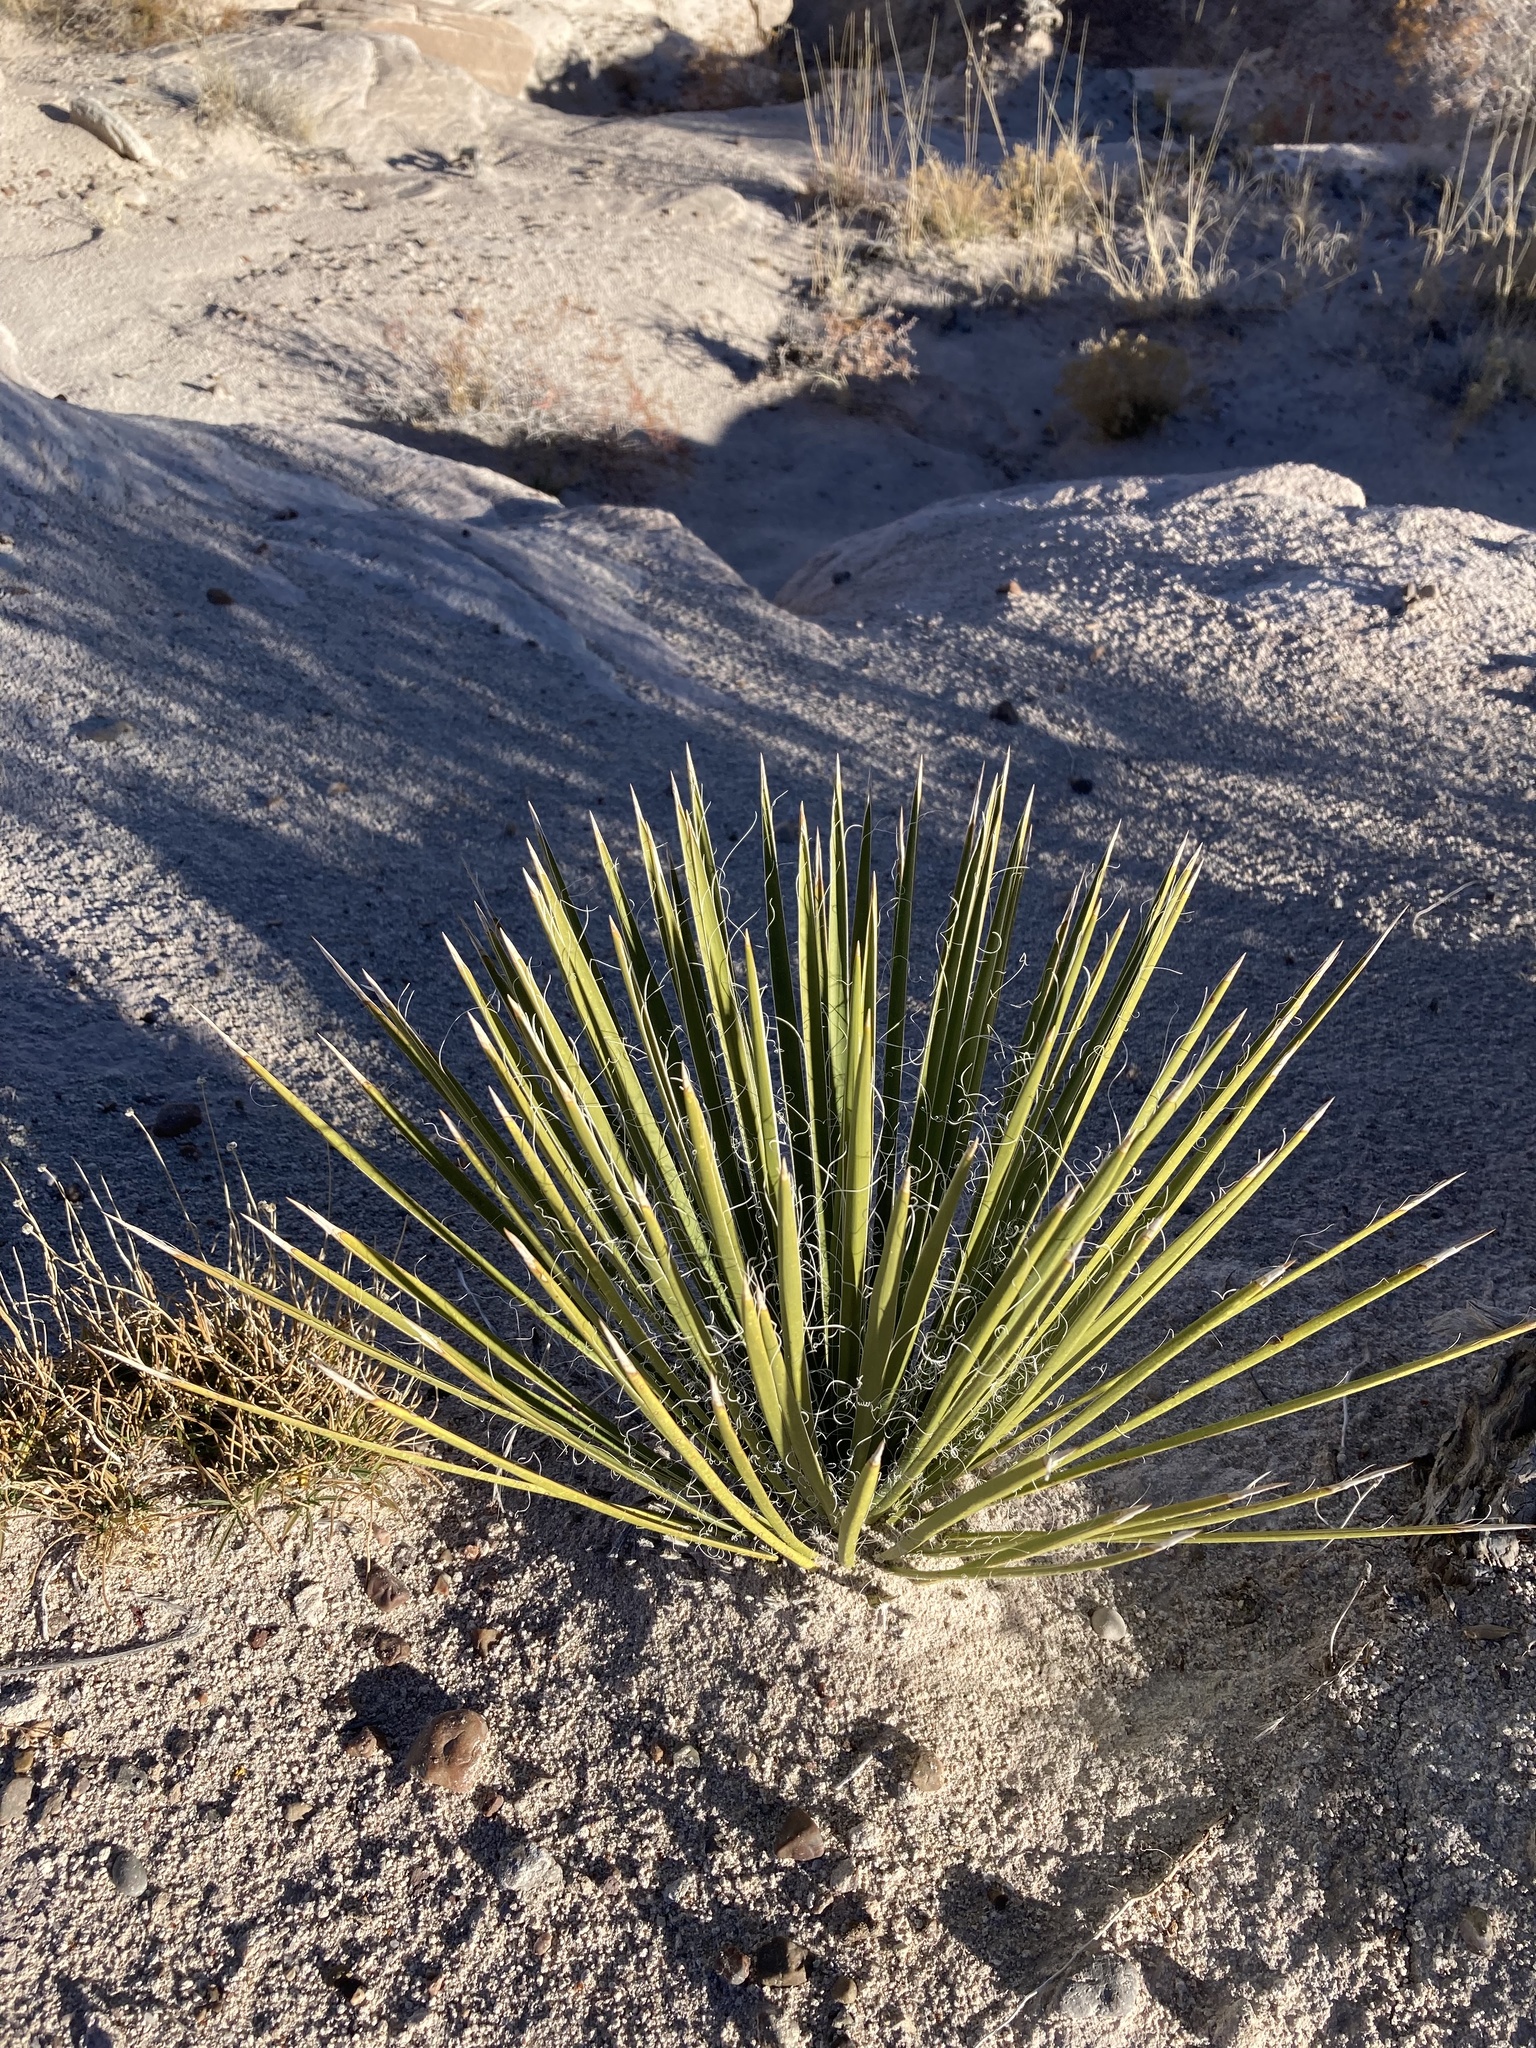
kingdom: Plantae
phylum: Tracheophyta
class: Liliopsida
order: Asparagales
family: Asparagaceae
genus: Yucca
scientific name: Yucca angustissima
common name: Narrowleaf yucca
